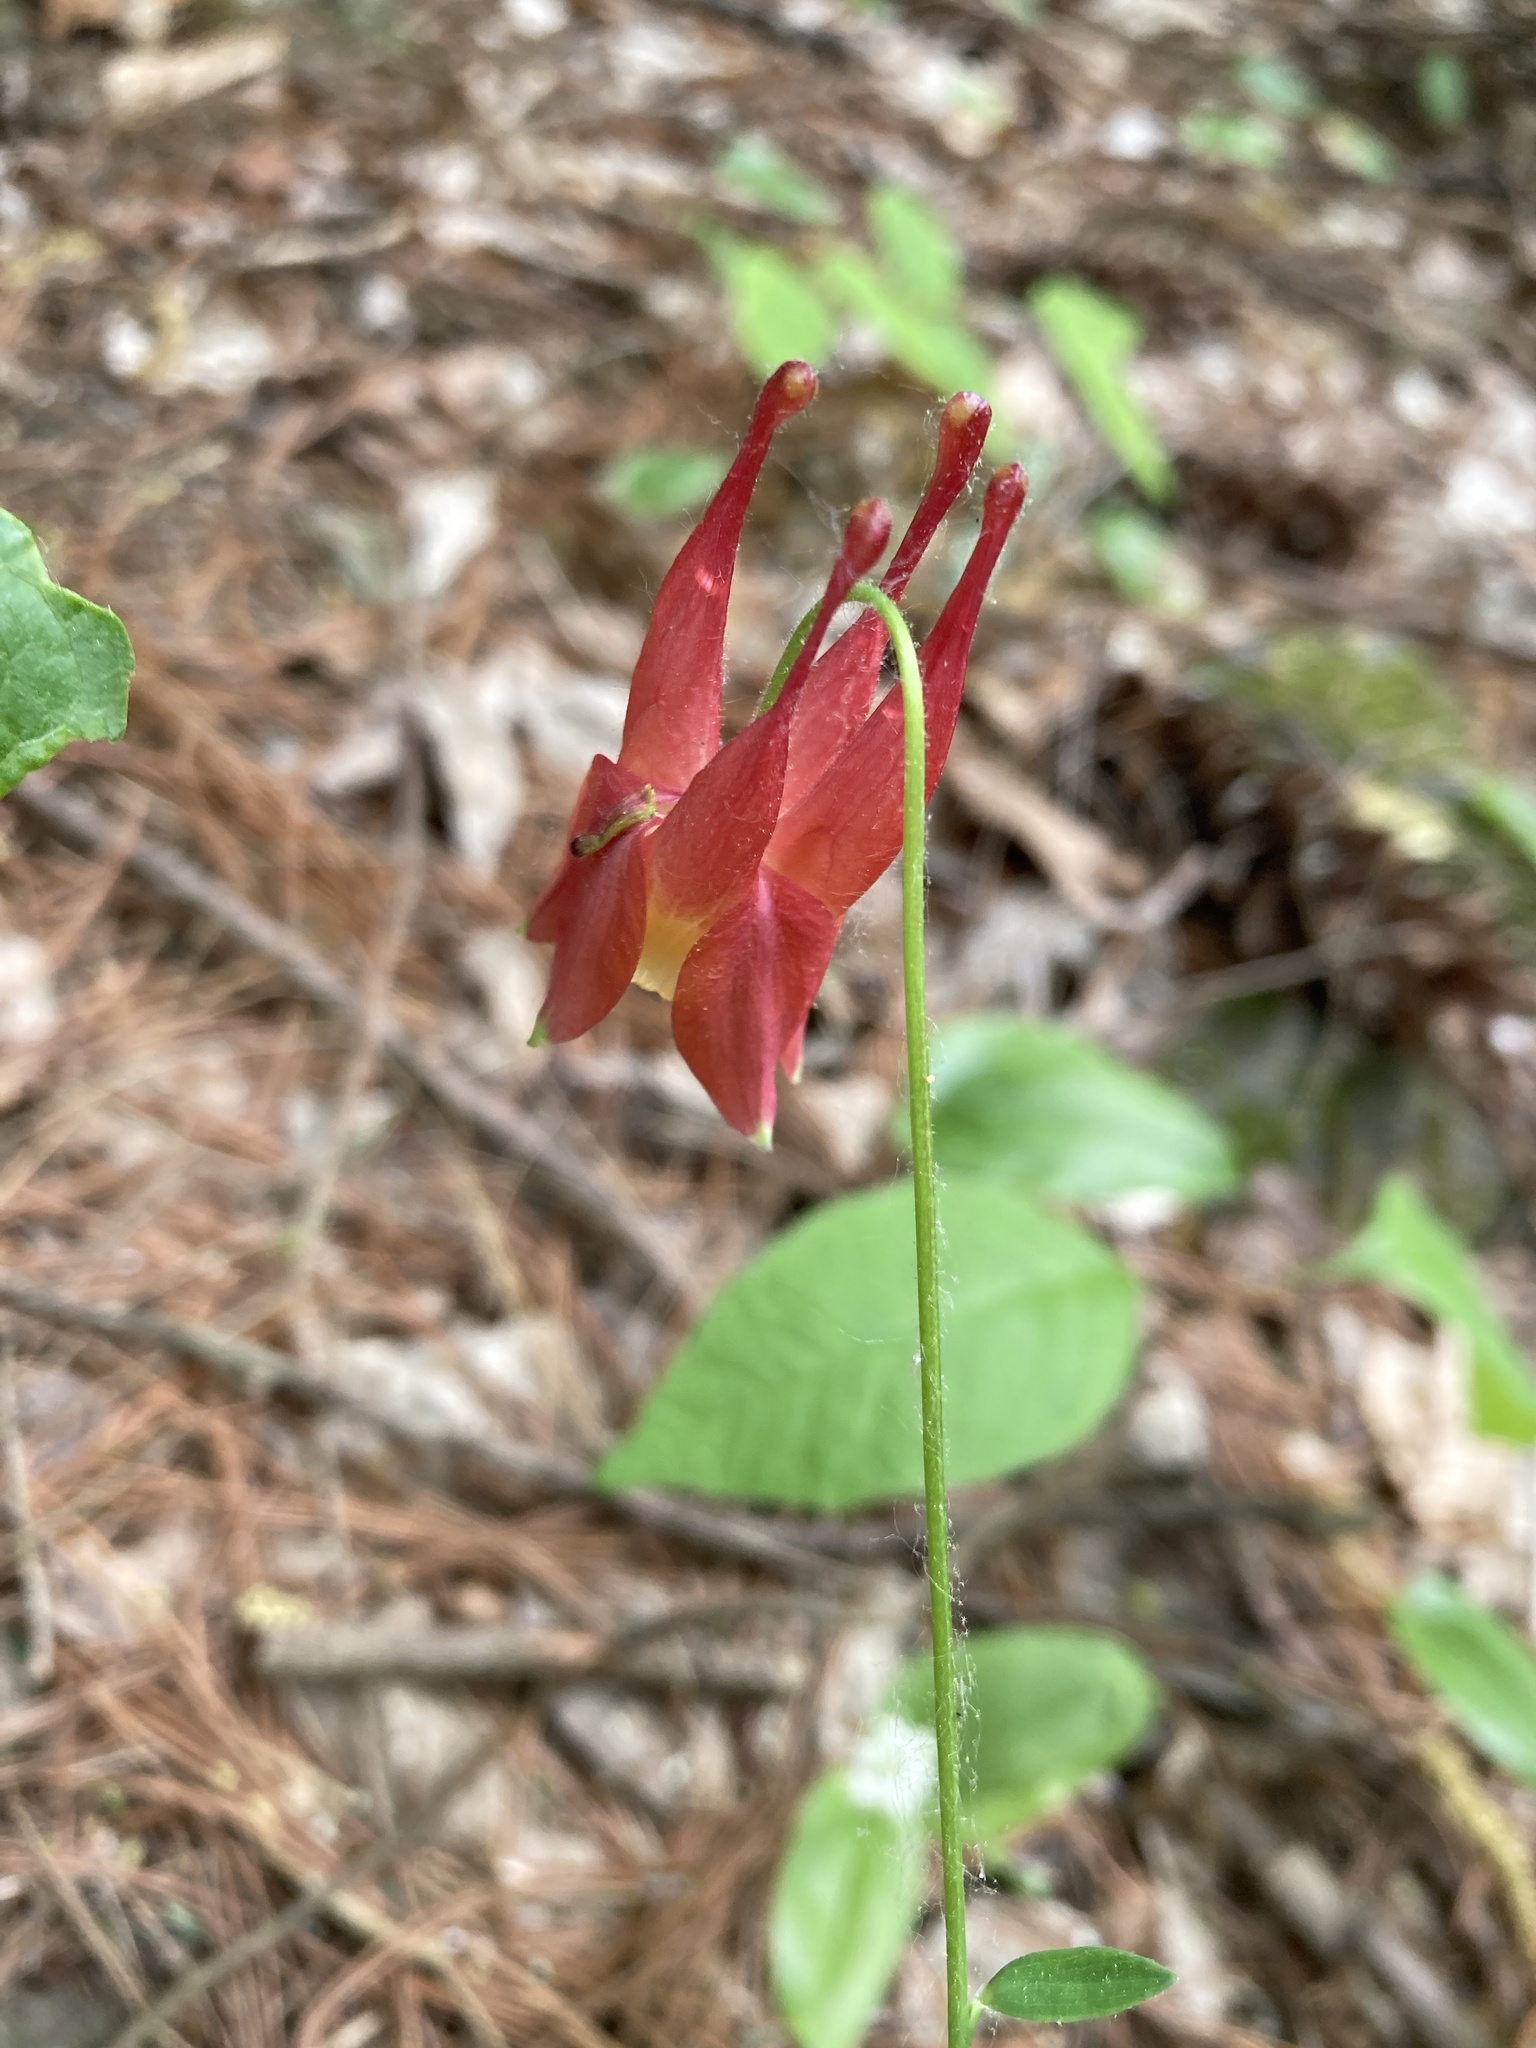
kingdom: Plantae
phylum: Tracheophyta
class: Magnoliopsida
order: Ranunculales
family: Ranunculaceae
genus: Aquilegia
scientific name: Aquilegia canadensis
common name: American columbine
